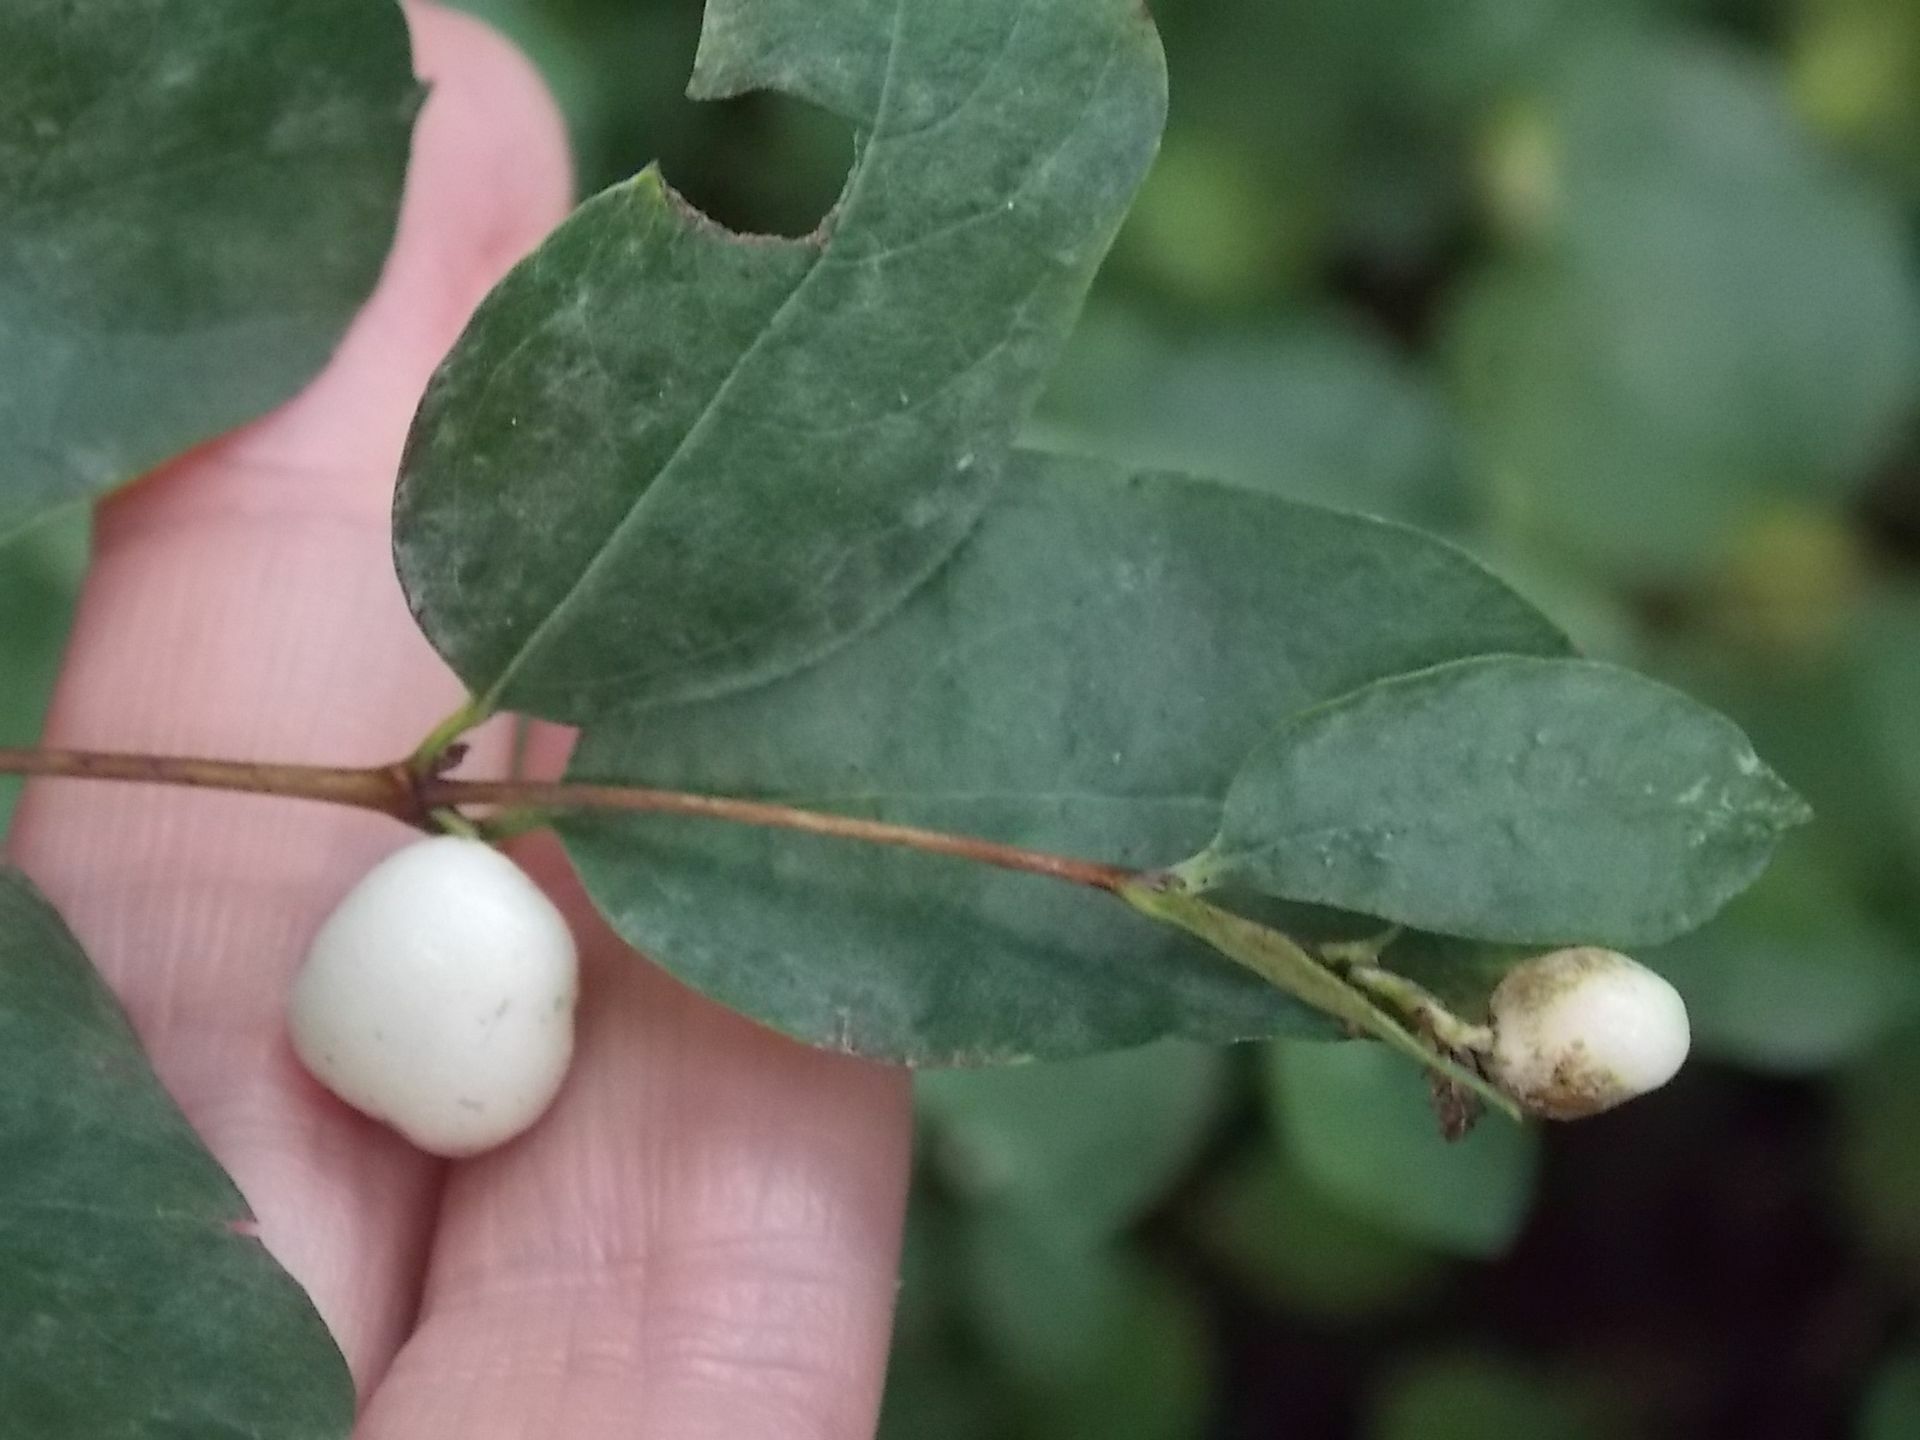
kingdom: Plantae
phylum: Tracheophyta
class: Magnoliopsida
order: Dipsacales
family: Caprifoliaceae
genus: Symphoricarpos
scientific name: Symphoricarpos albus
